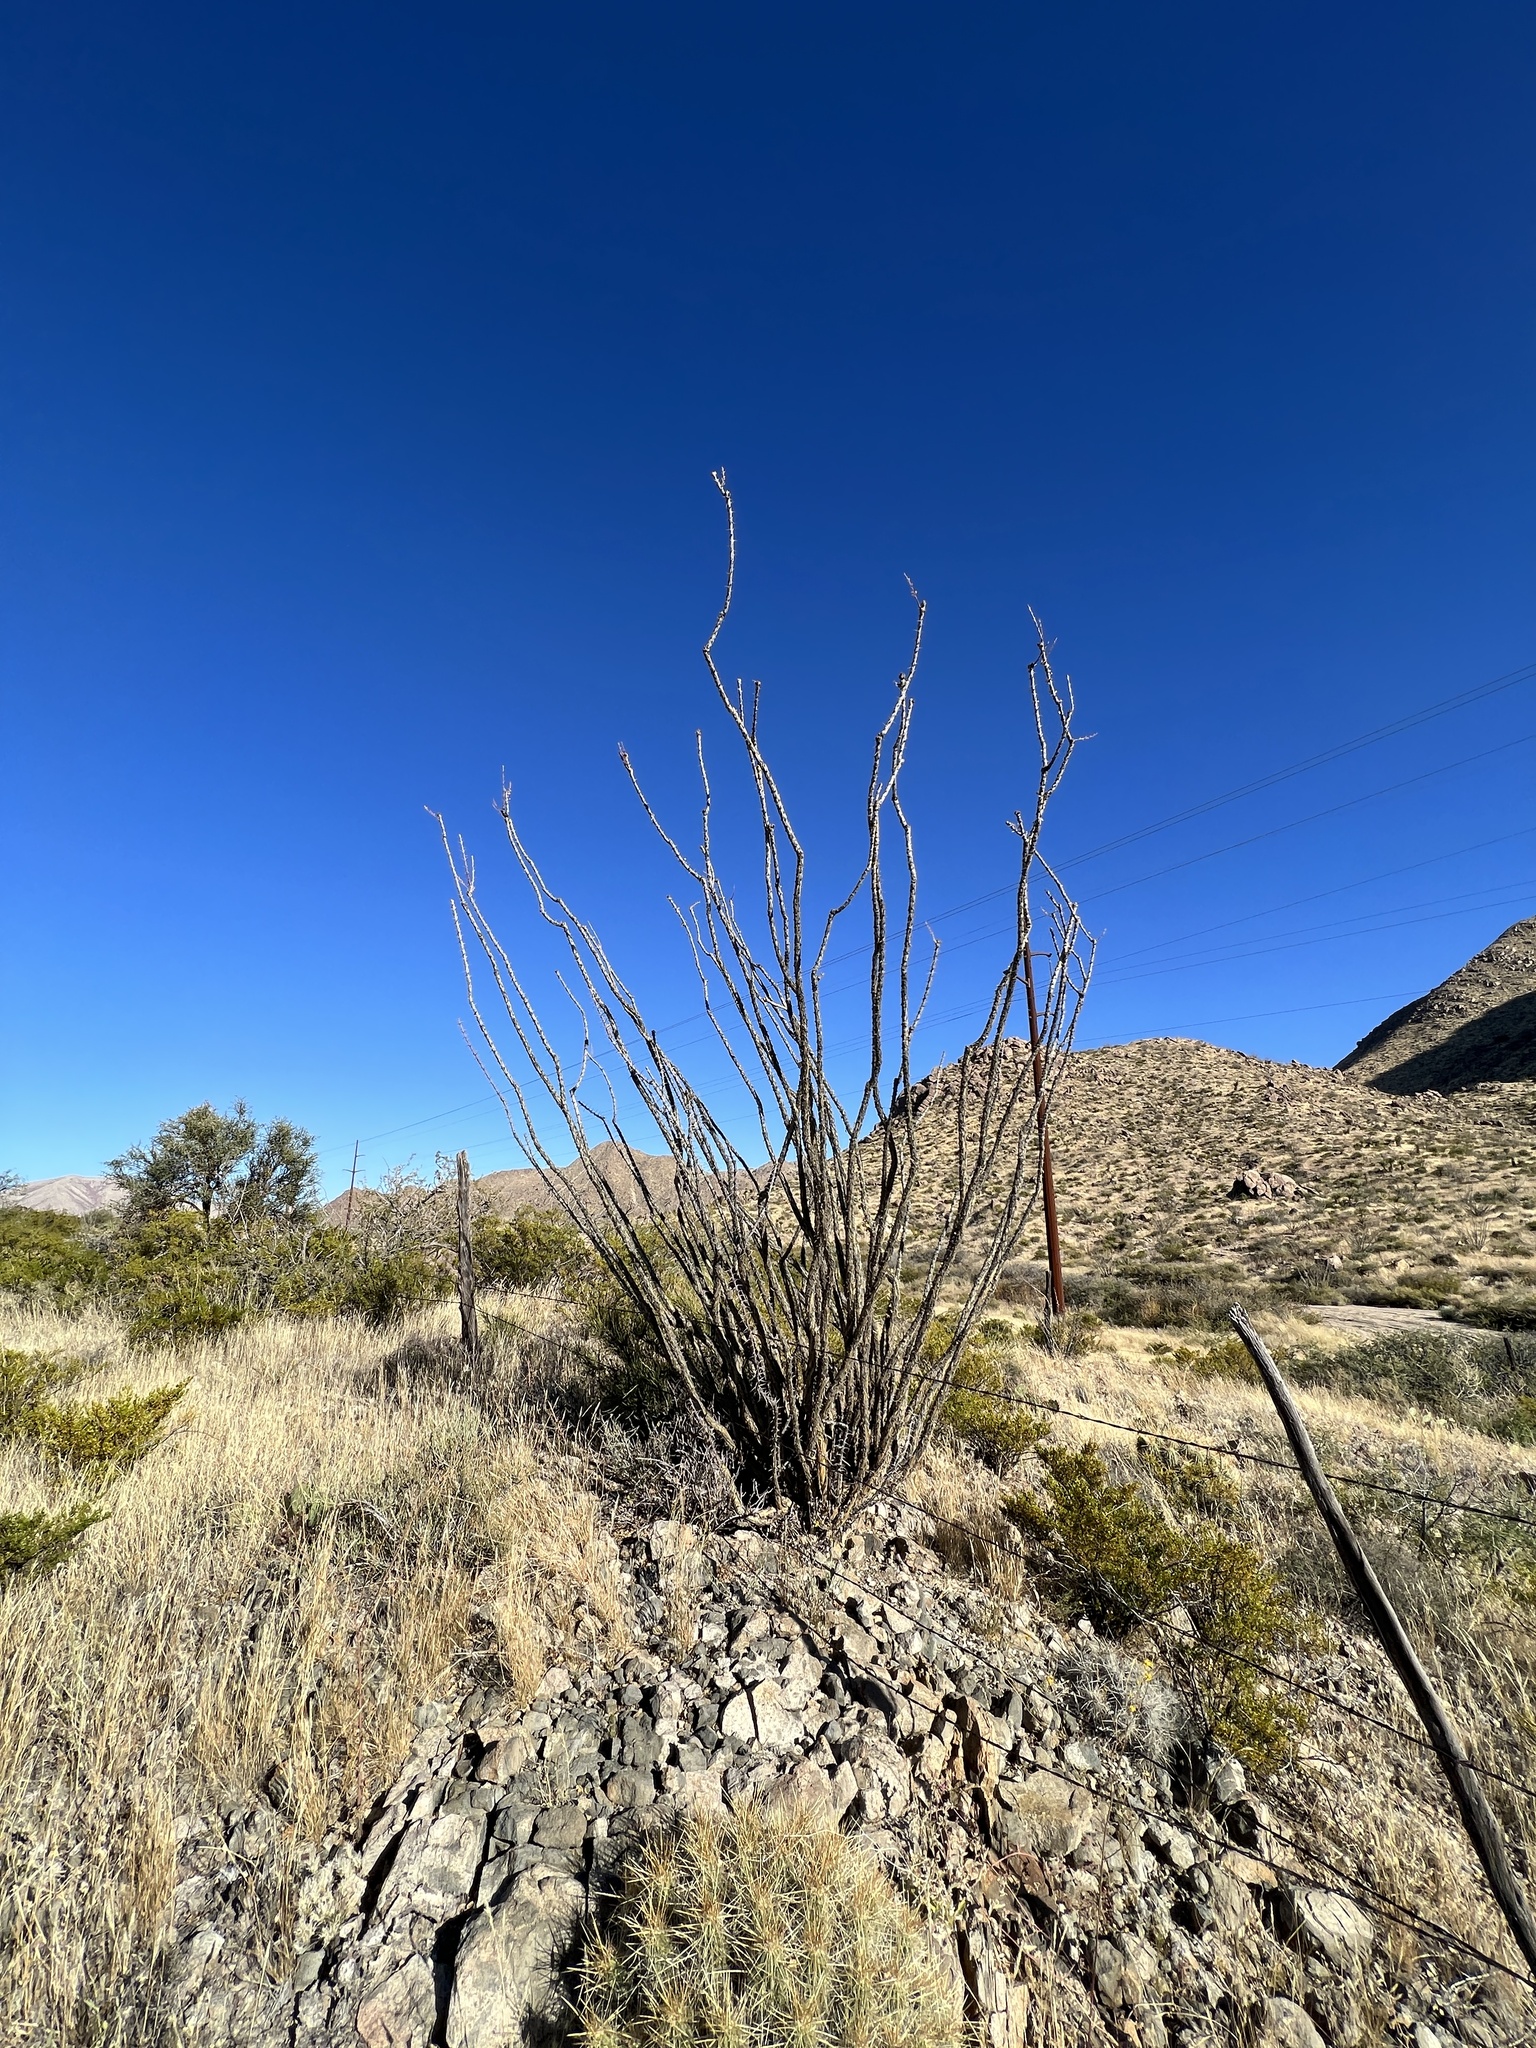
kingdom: Plantae
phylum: Tracheophyta
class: Magnoliopsida
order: Ericales
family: Fouquieriaceae
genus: Fouquieria
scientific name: Fouquieria splendens
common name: Vine-cactus
